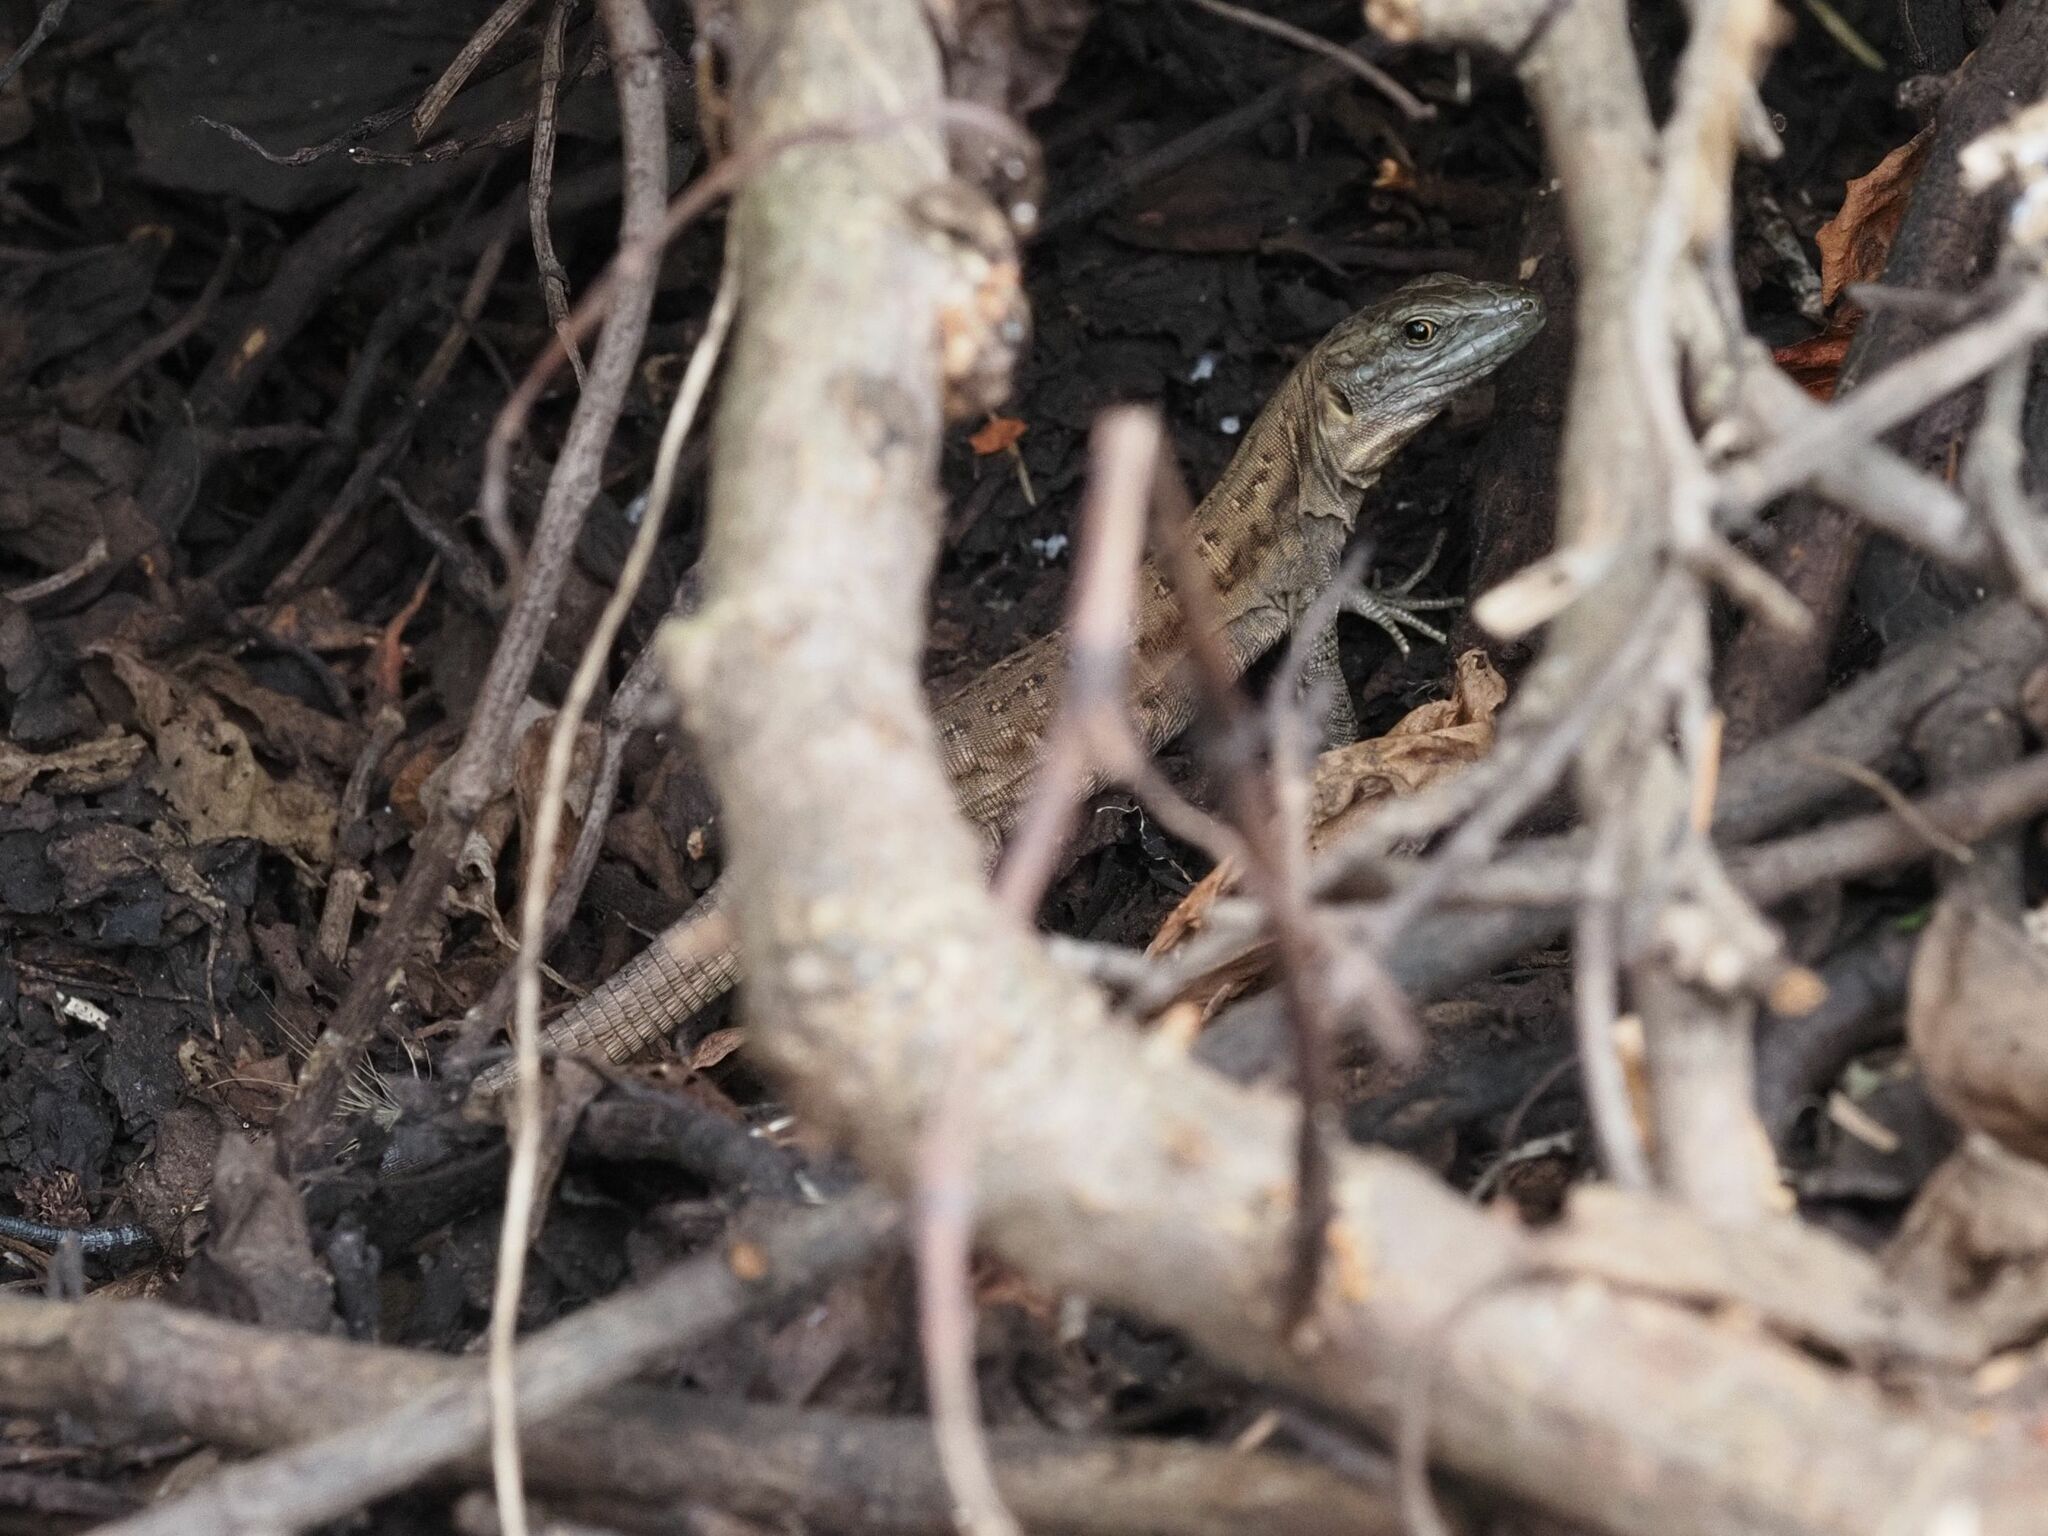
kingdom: Animalia
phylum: Chordata
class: Squamata
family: Lacertidae
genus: Gallotia
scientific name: Gallotia stehlini
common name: Gran canaria giant lizard
